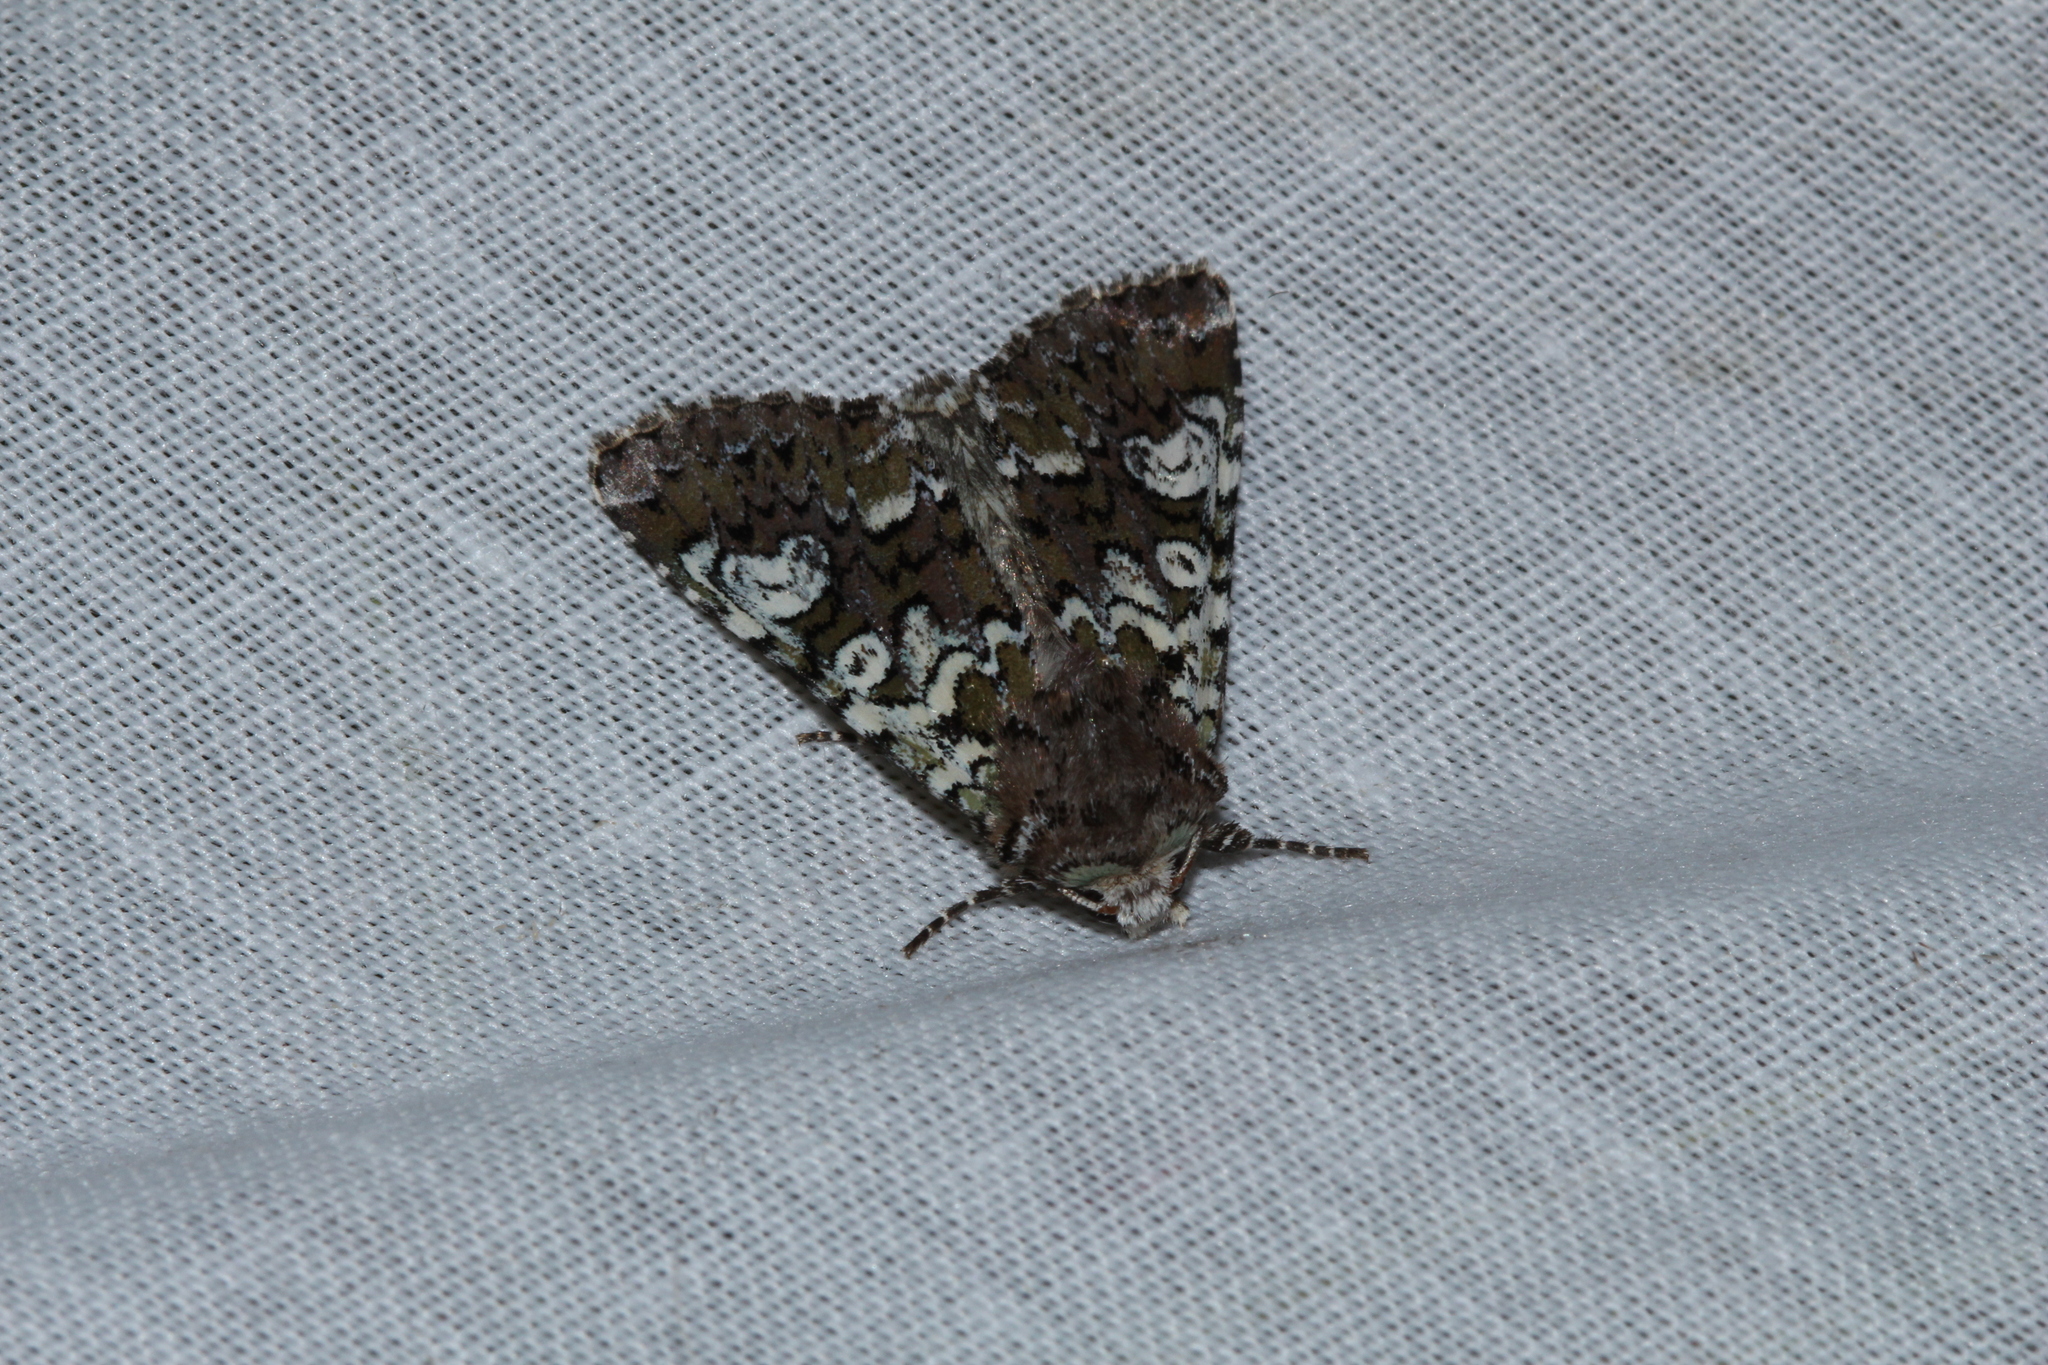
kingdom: Animalia
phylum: Arthropoda
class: Insecta
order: Lepidoptera
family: Noctuidae
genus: Crypsedra
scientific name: Crypsedra gemmea
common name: Cameo
